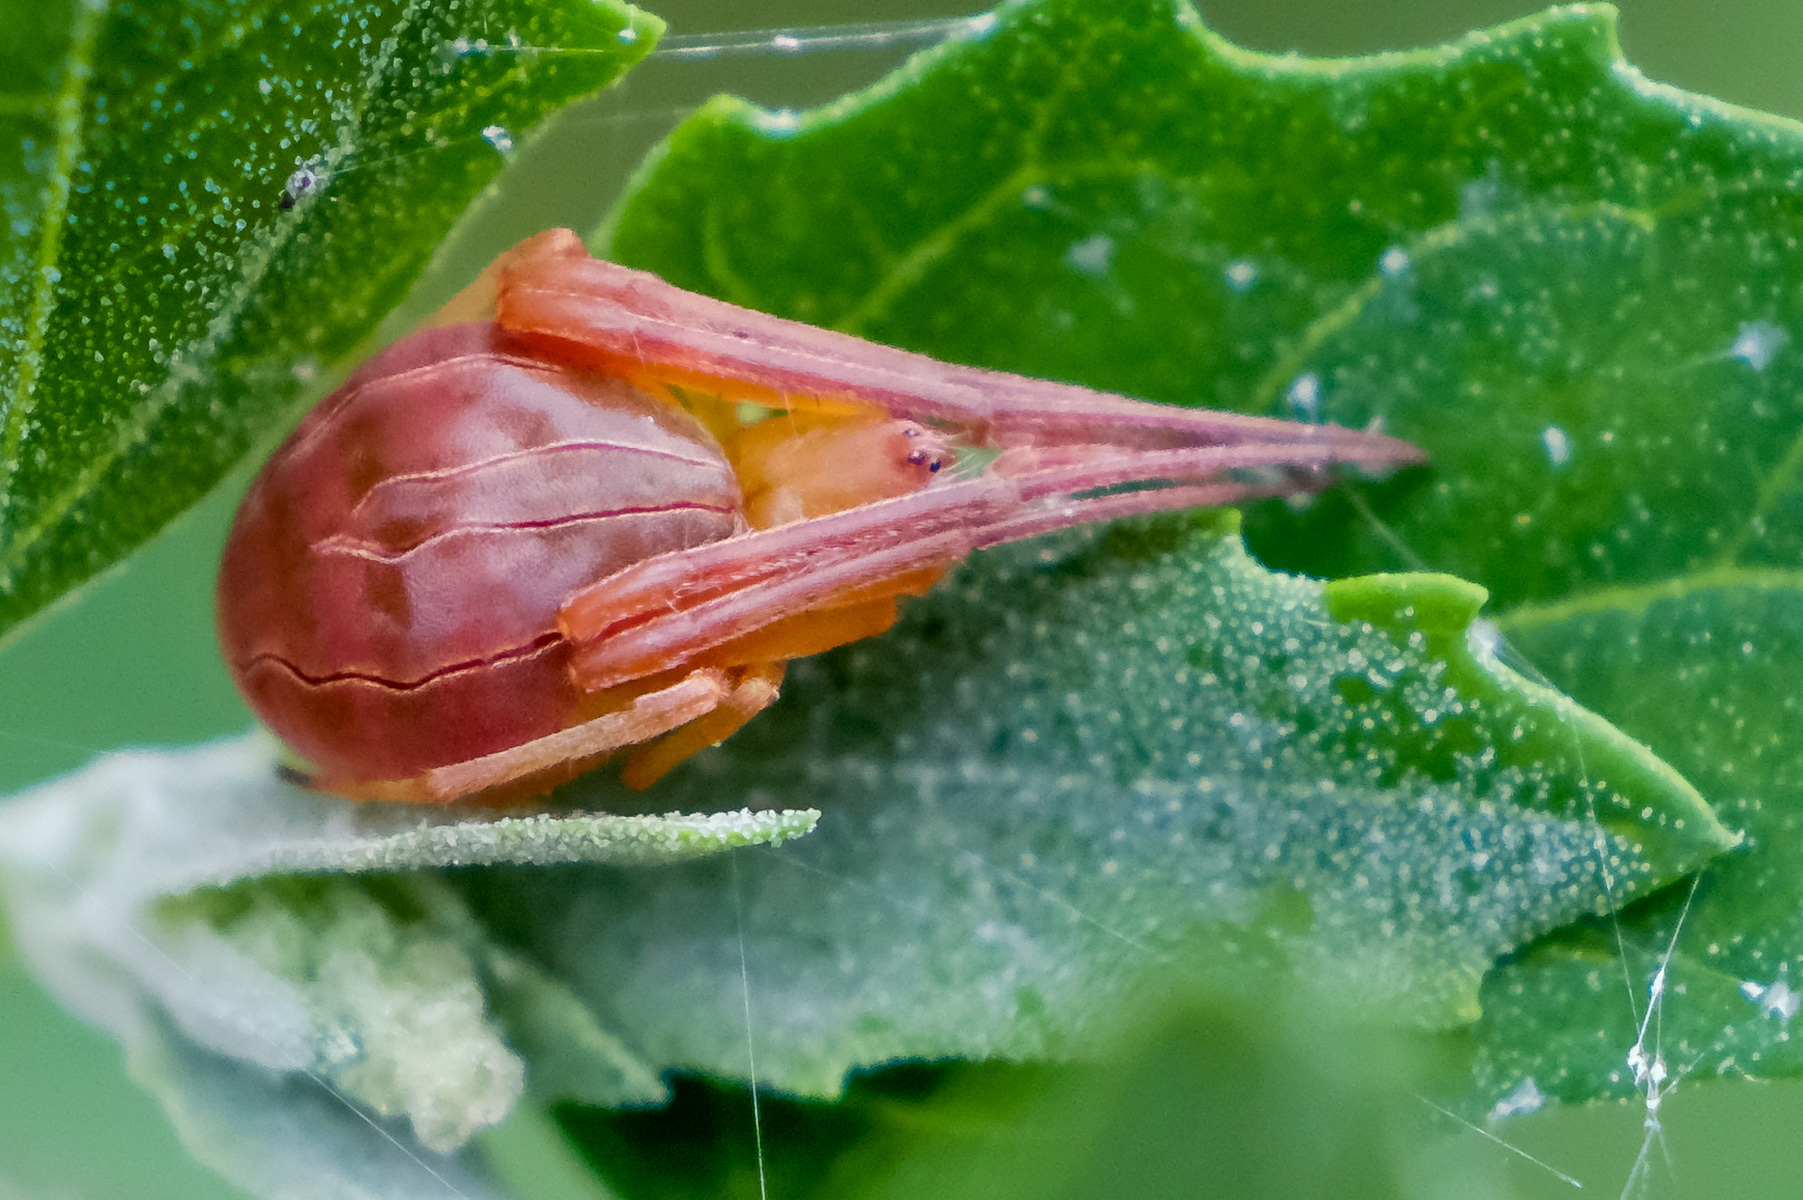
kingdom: Animalia
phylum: Arthropoda
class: Arachnida
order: Araneae
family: Araneidae
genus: Acacesia
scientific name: Acacesia hamata
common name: Orb weavers
